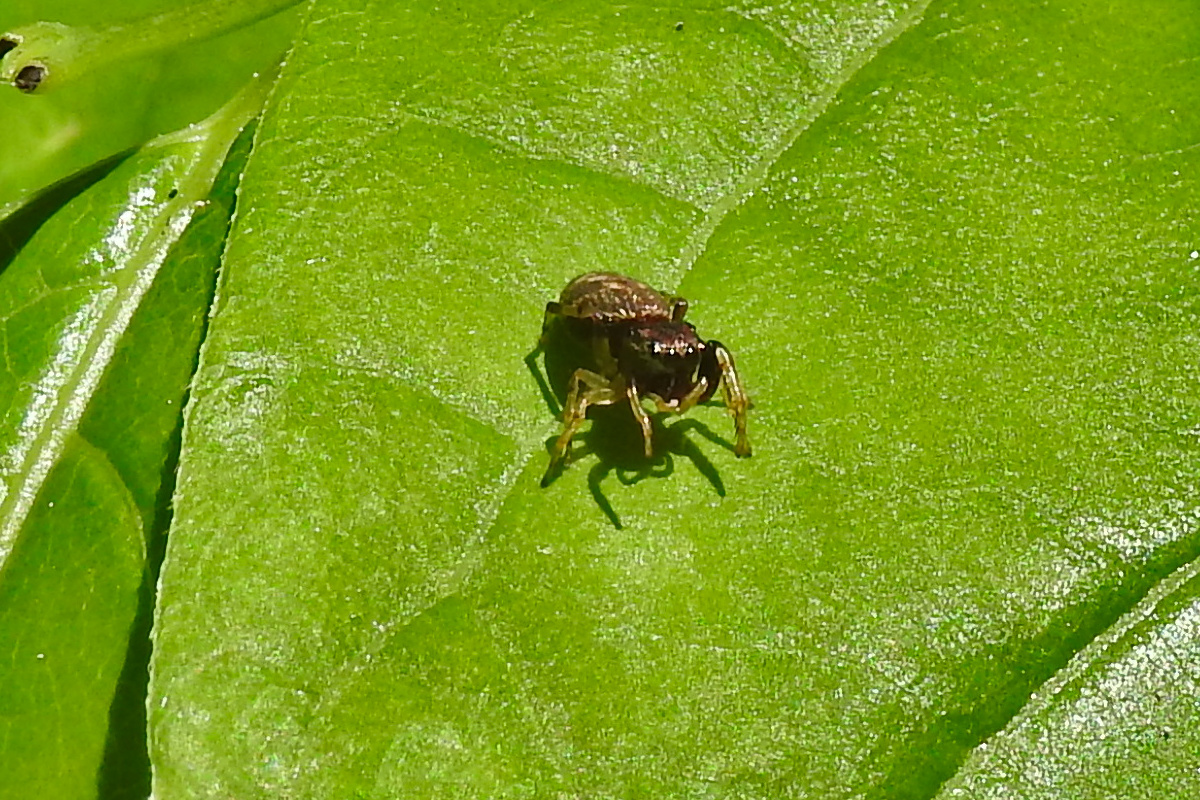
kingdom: Animalia
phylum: Arthropoda
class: Arachnida
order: Araneae
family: Salticidae
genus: Zygoballus
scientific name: Zygoballus rufipes
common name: Jumping spiders
